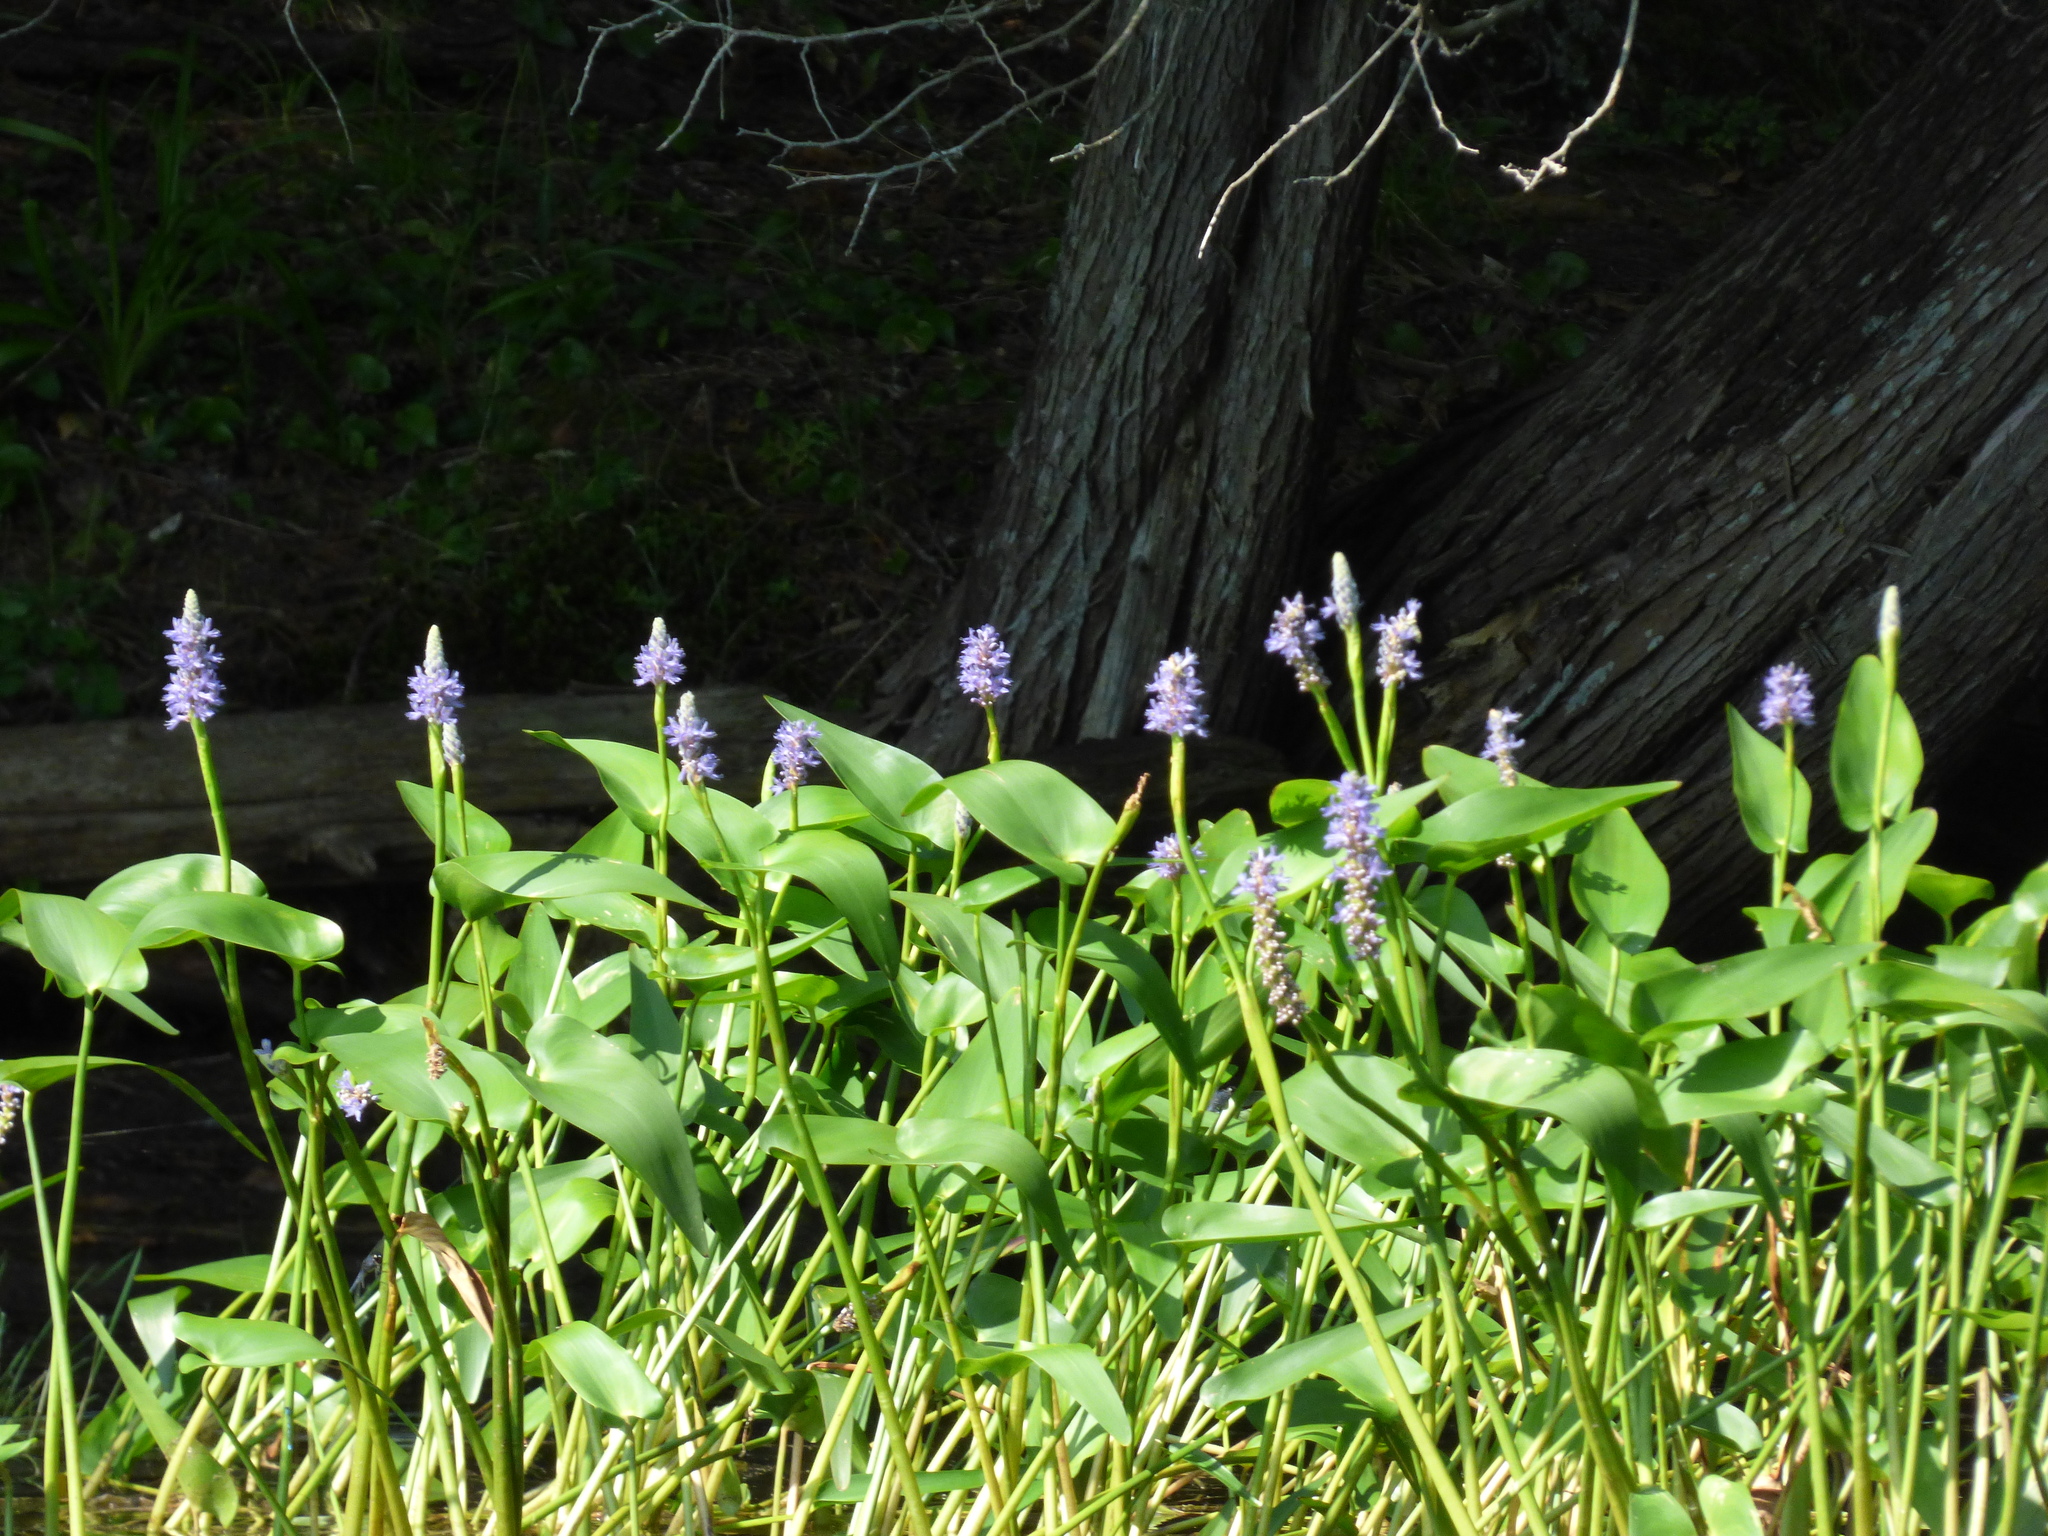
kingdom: Plantae
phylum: Tracheophyta
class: Liliopsida
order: Commelinales
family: Pontederiaceae
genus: Pontederia
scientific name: Pontederia cordata
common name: Pickerelweed
